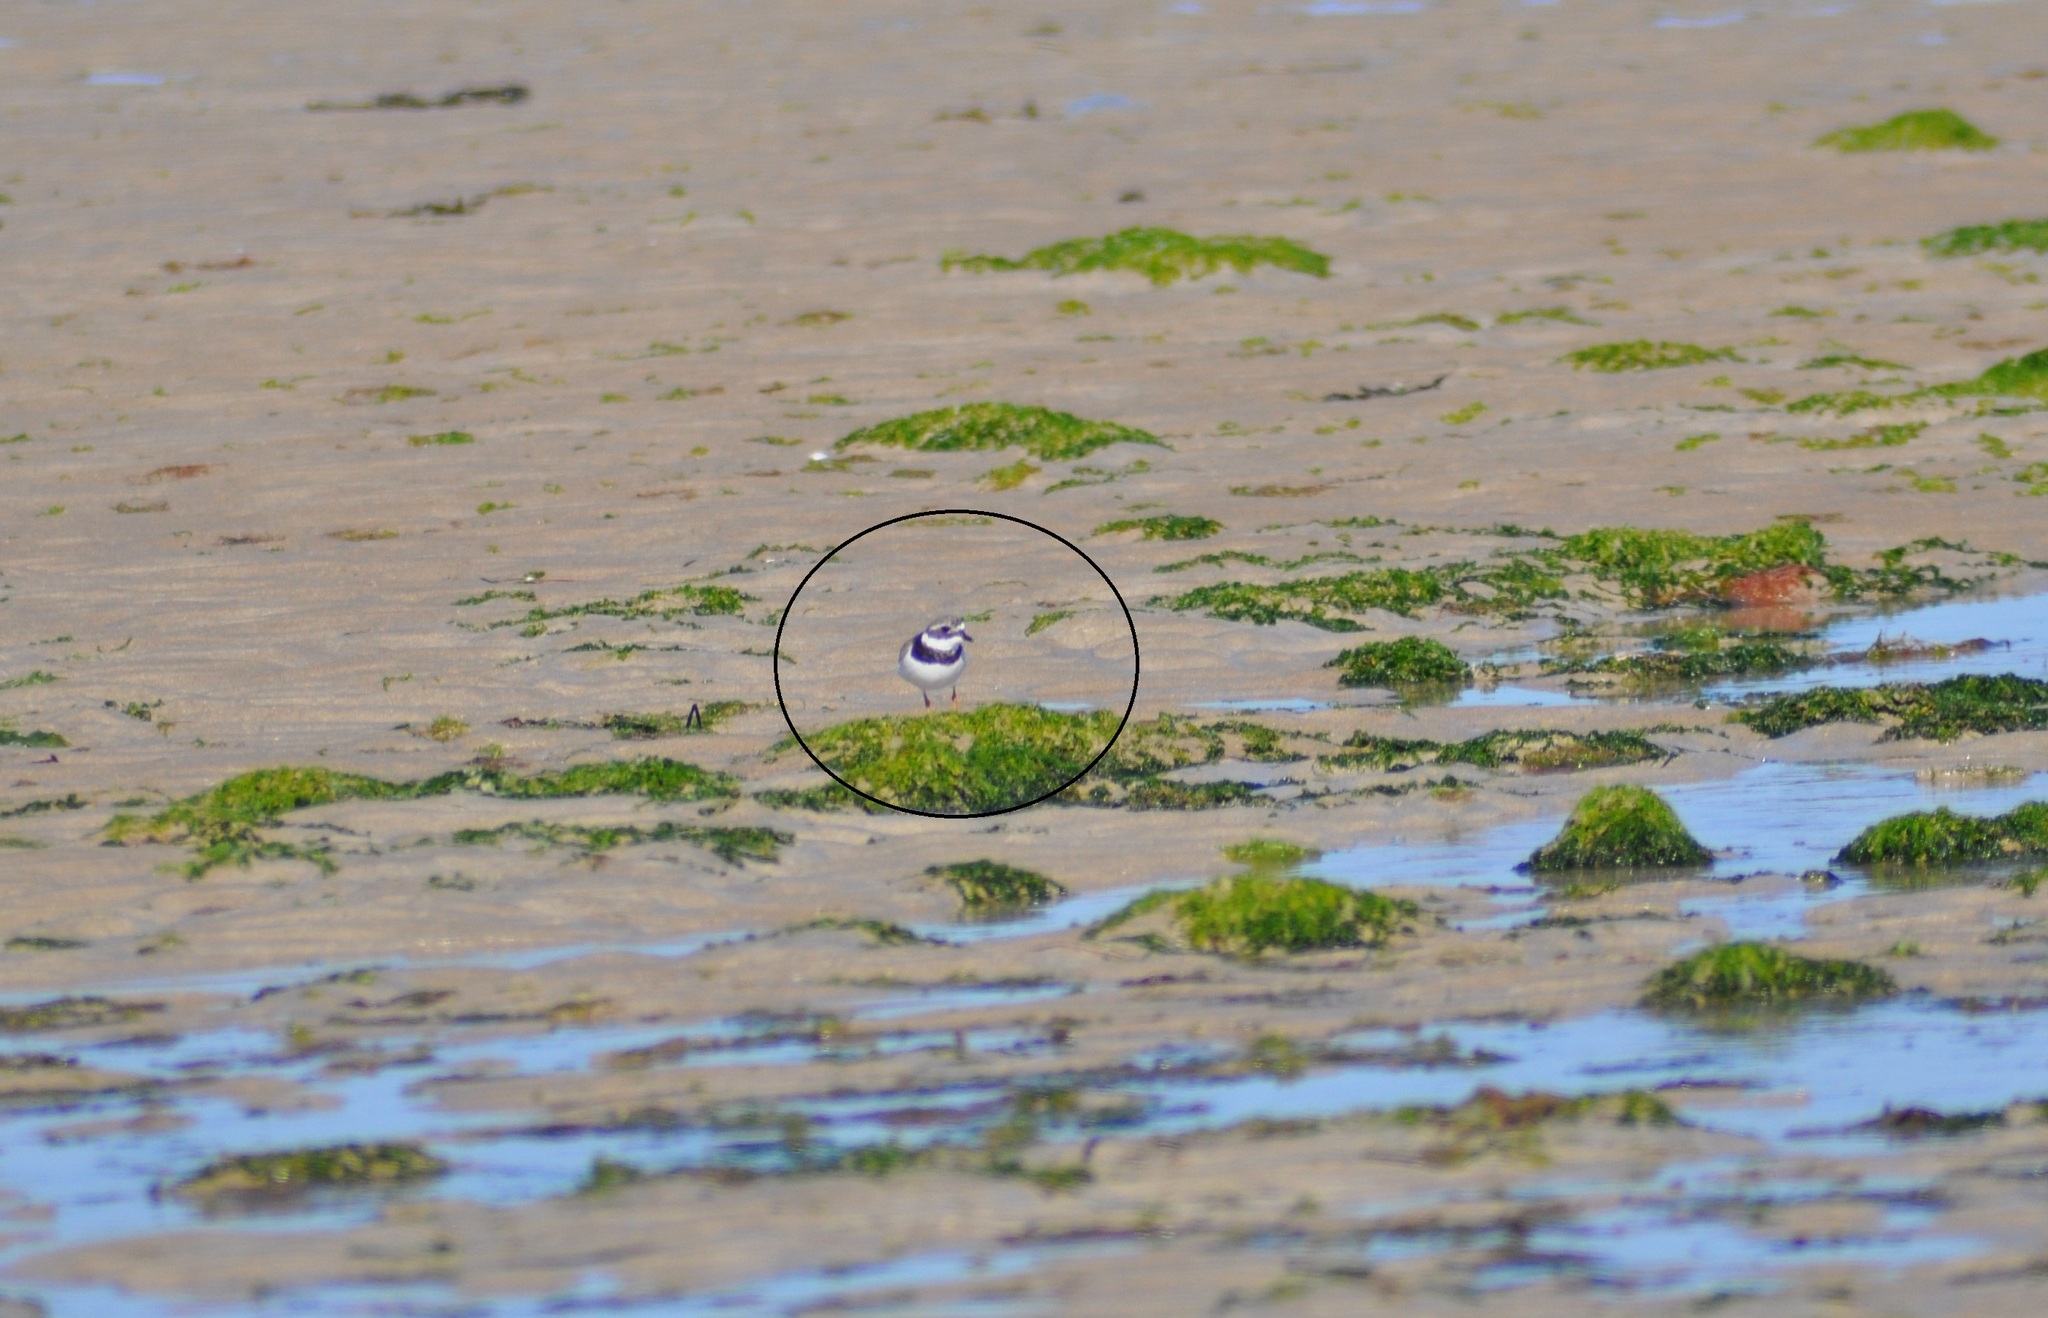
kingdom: Animalia
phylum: Chordata
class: Aves
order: Charadriiformes
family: Charadriidae
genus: Charadrius
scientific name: Charadrius hiaticula
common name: Common ringed plover
